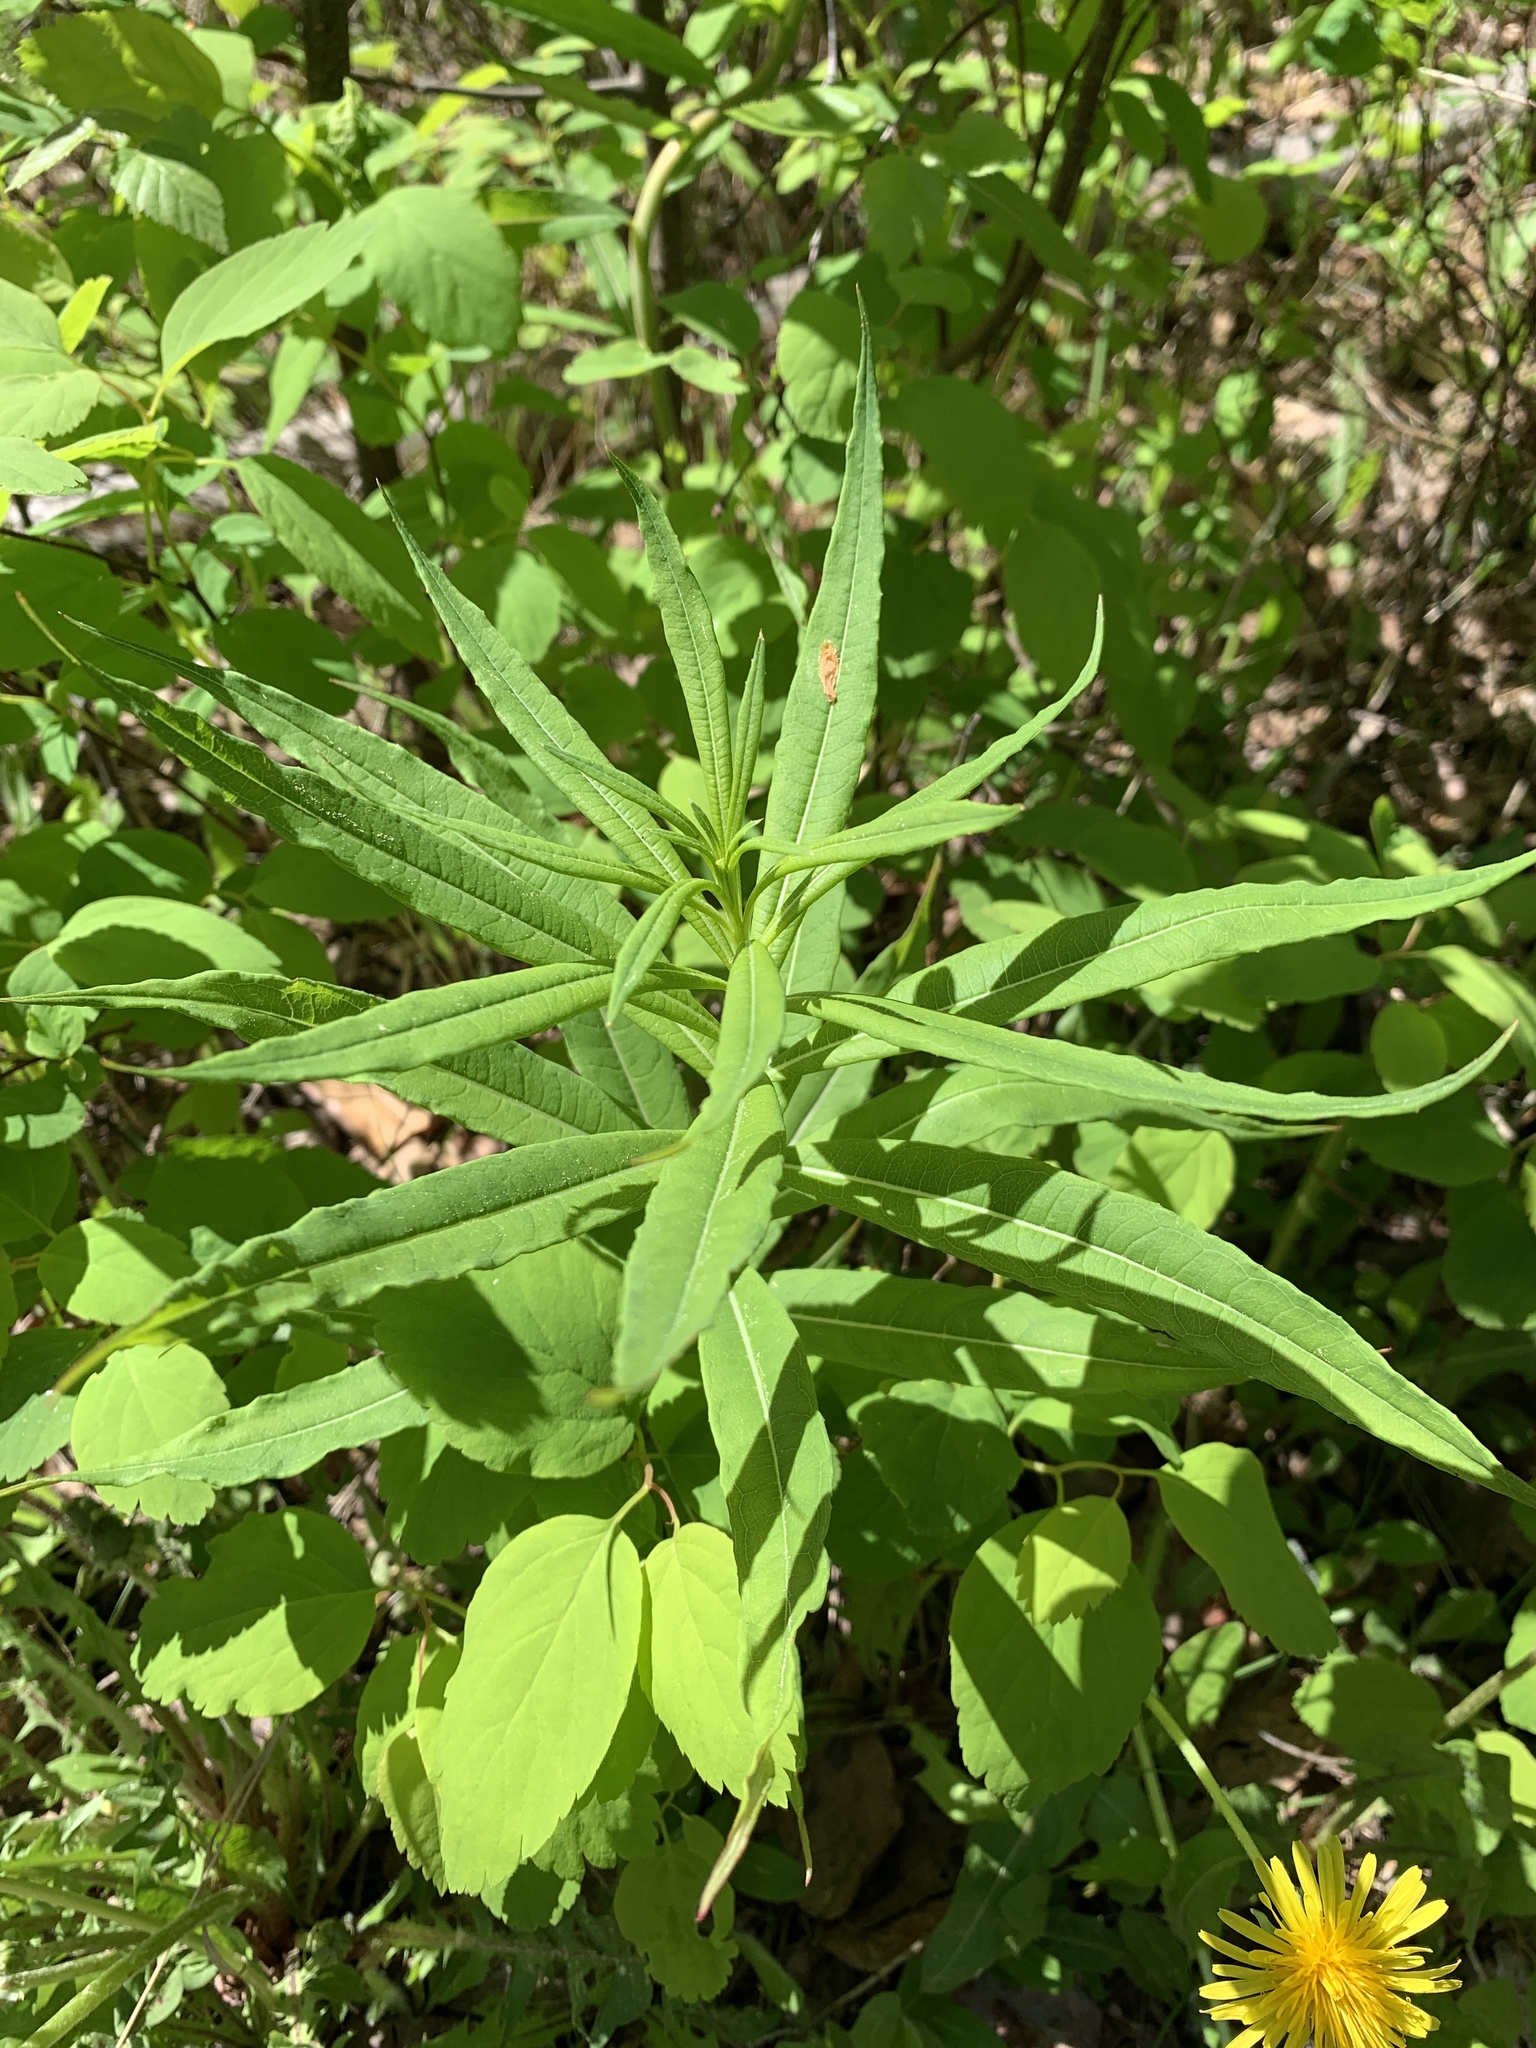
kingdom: Plantae
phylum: Tracheophyta
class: Magnoliopsida
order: Myrtales
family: Onagraceae
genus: Chamaenerion
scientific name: Chamaenerion angustifolium
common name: Fireweed
